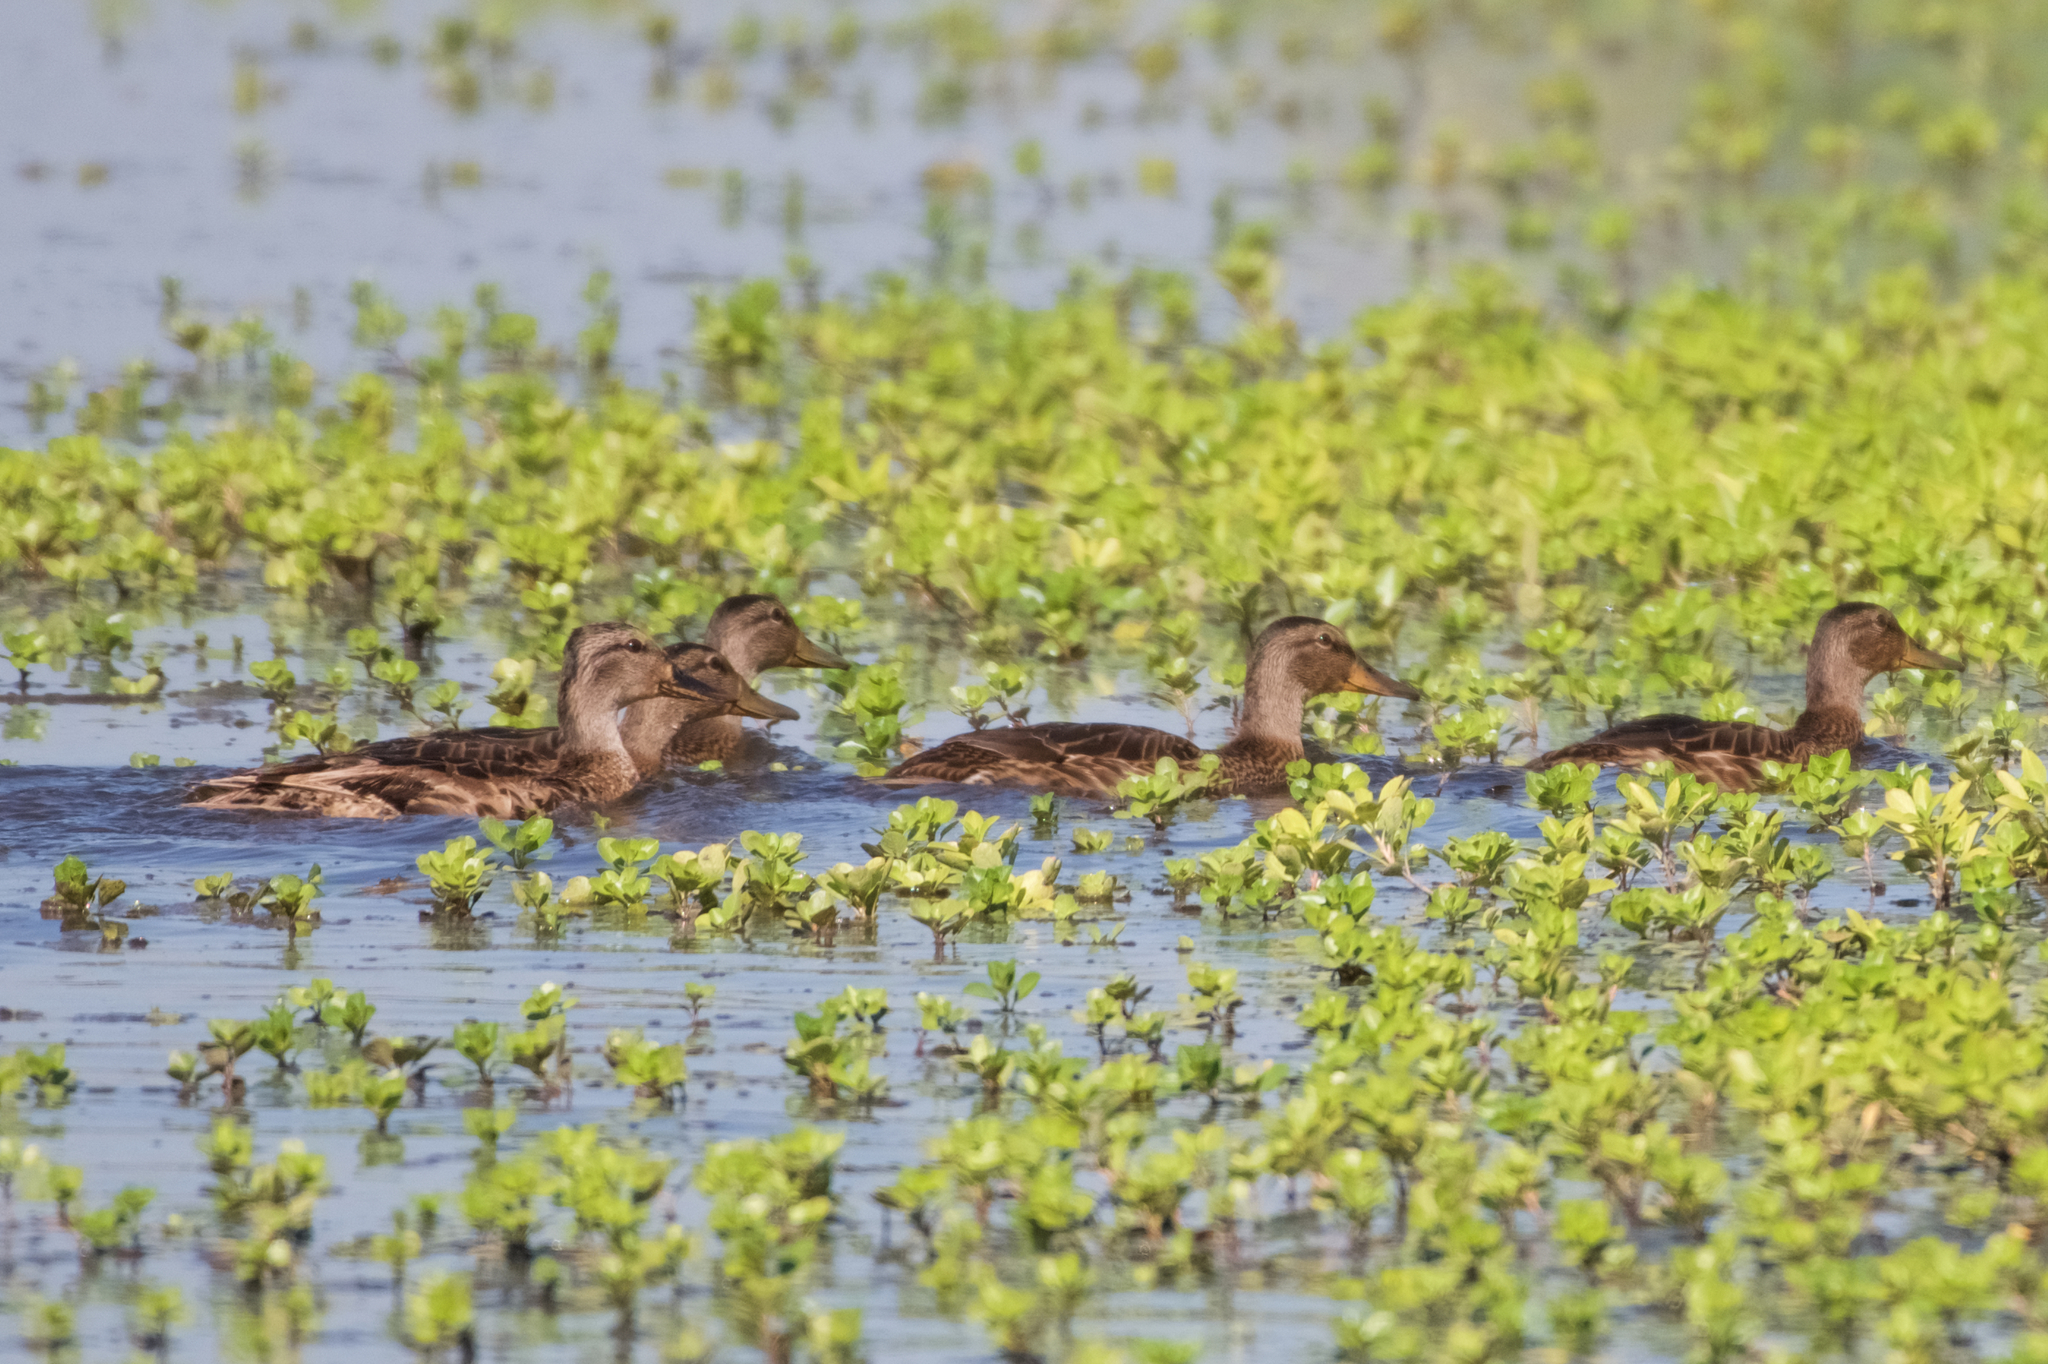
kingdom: Animalia
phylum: Chordata
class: Aves
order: Anseriformes
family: Anatidae
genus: Anas
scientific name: Anas platyrhynchos
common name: Mallard
